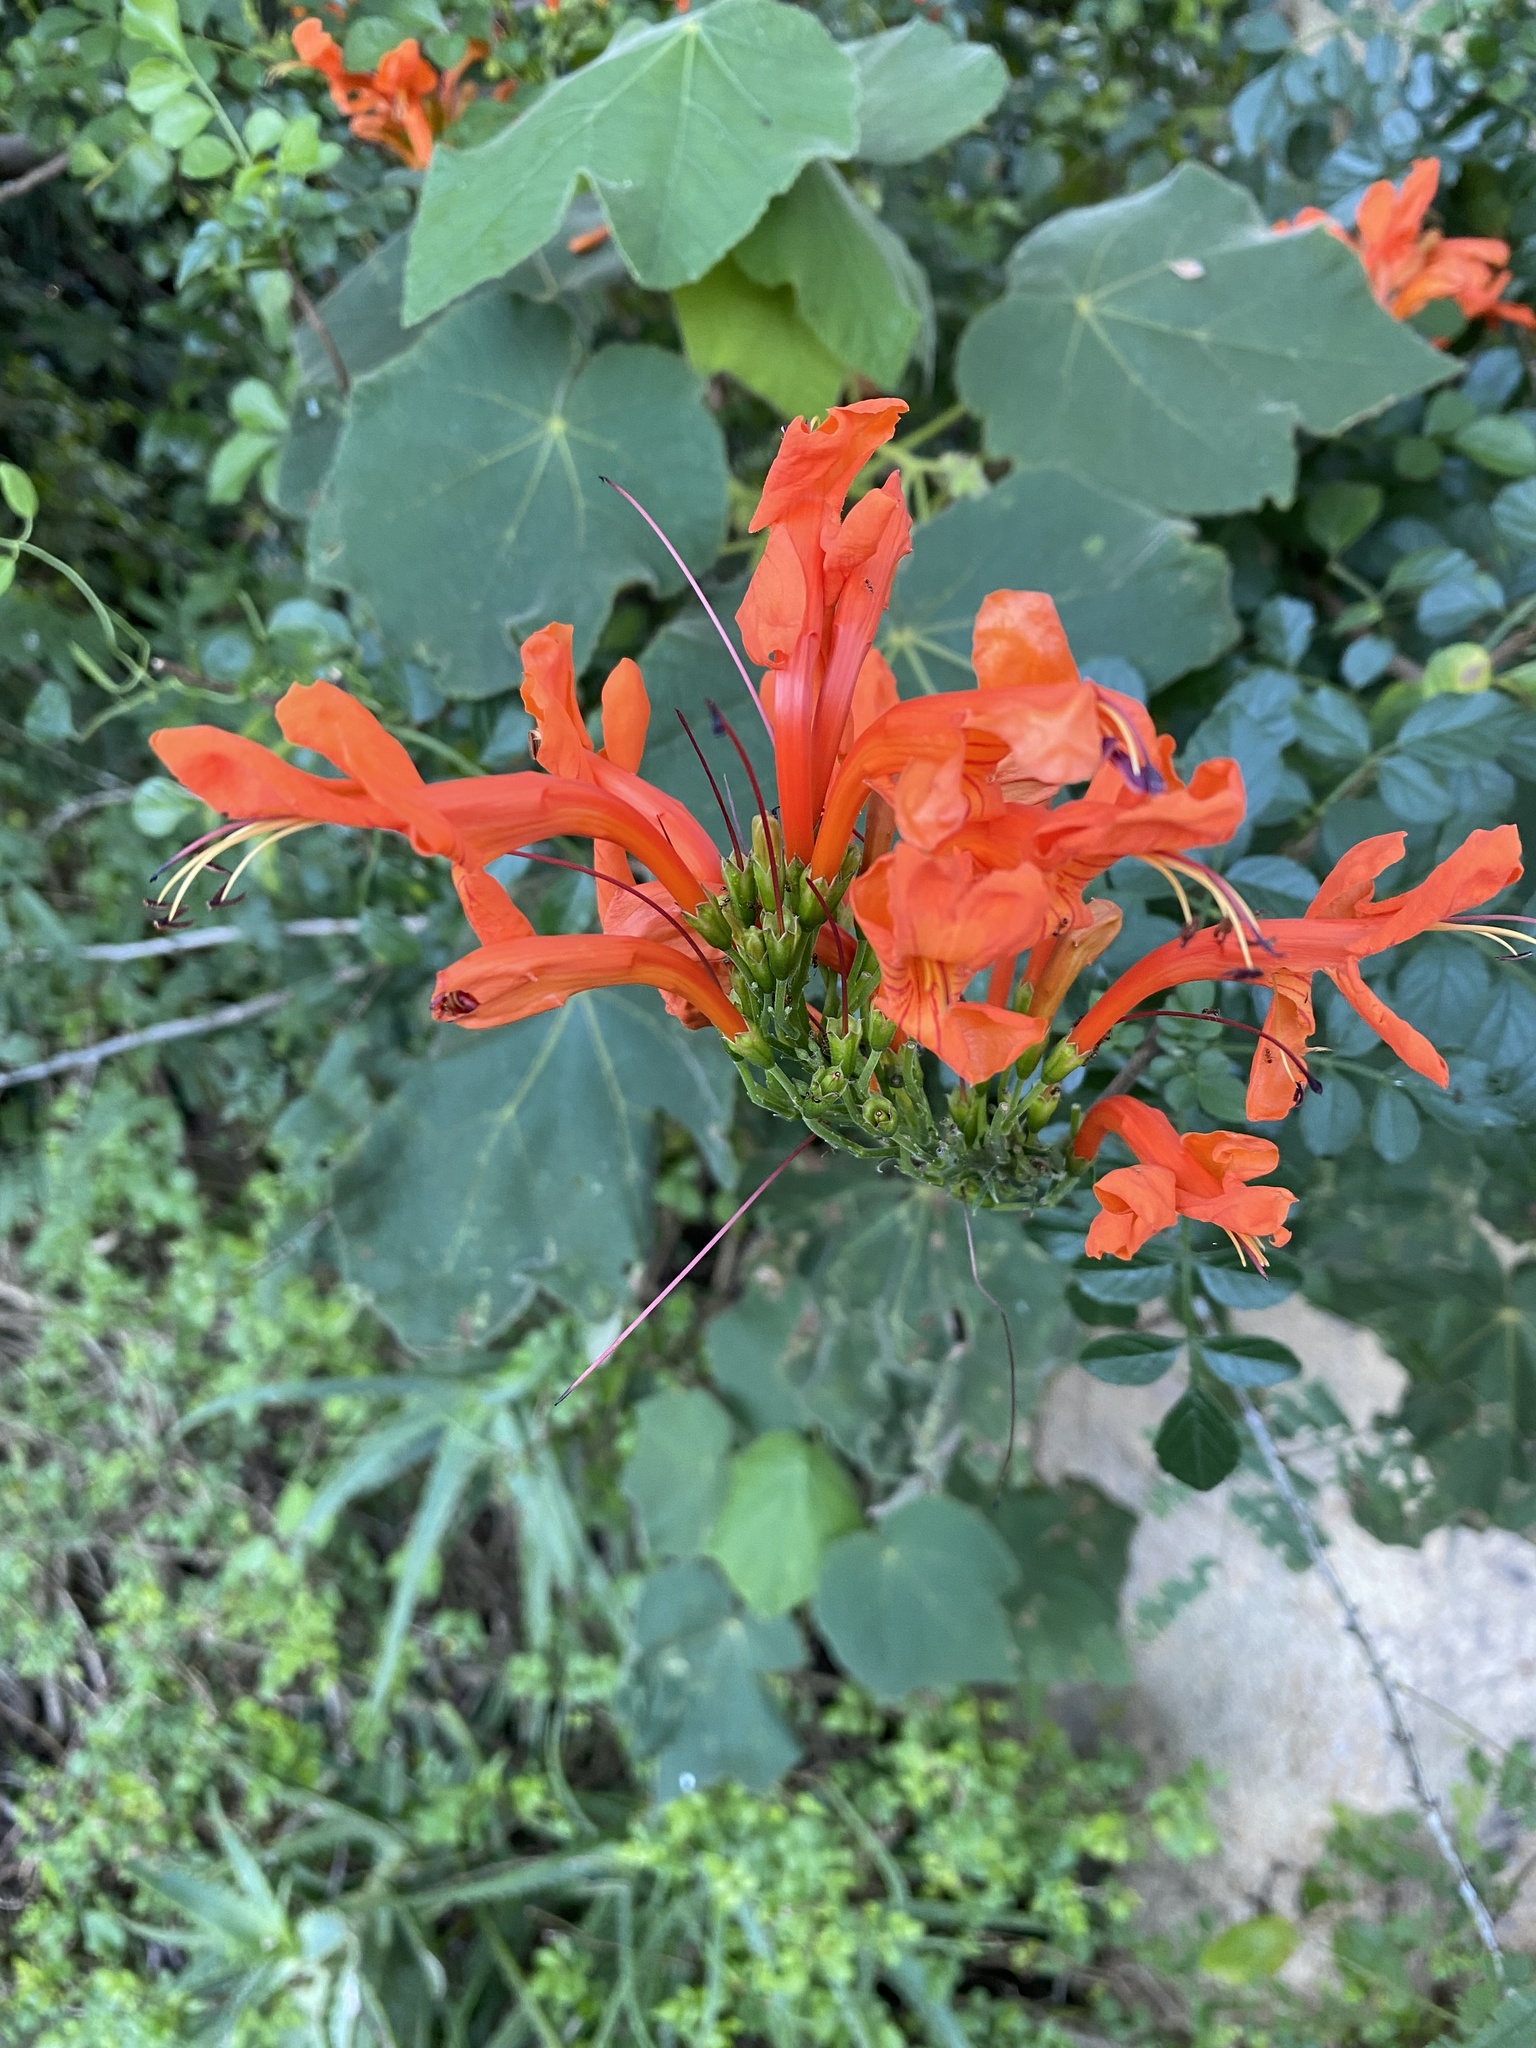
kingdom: Plantae
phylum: Tracheophyta
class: Magnoliopsida
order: Lamiales
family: Bignoniaceae
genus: Tecomaria
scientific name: Tecomaria capensis
